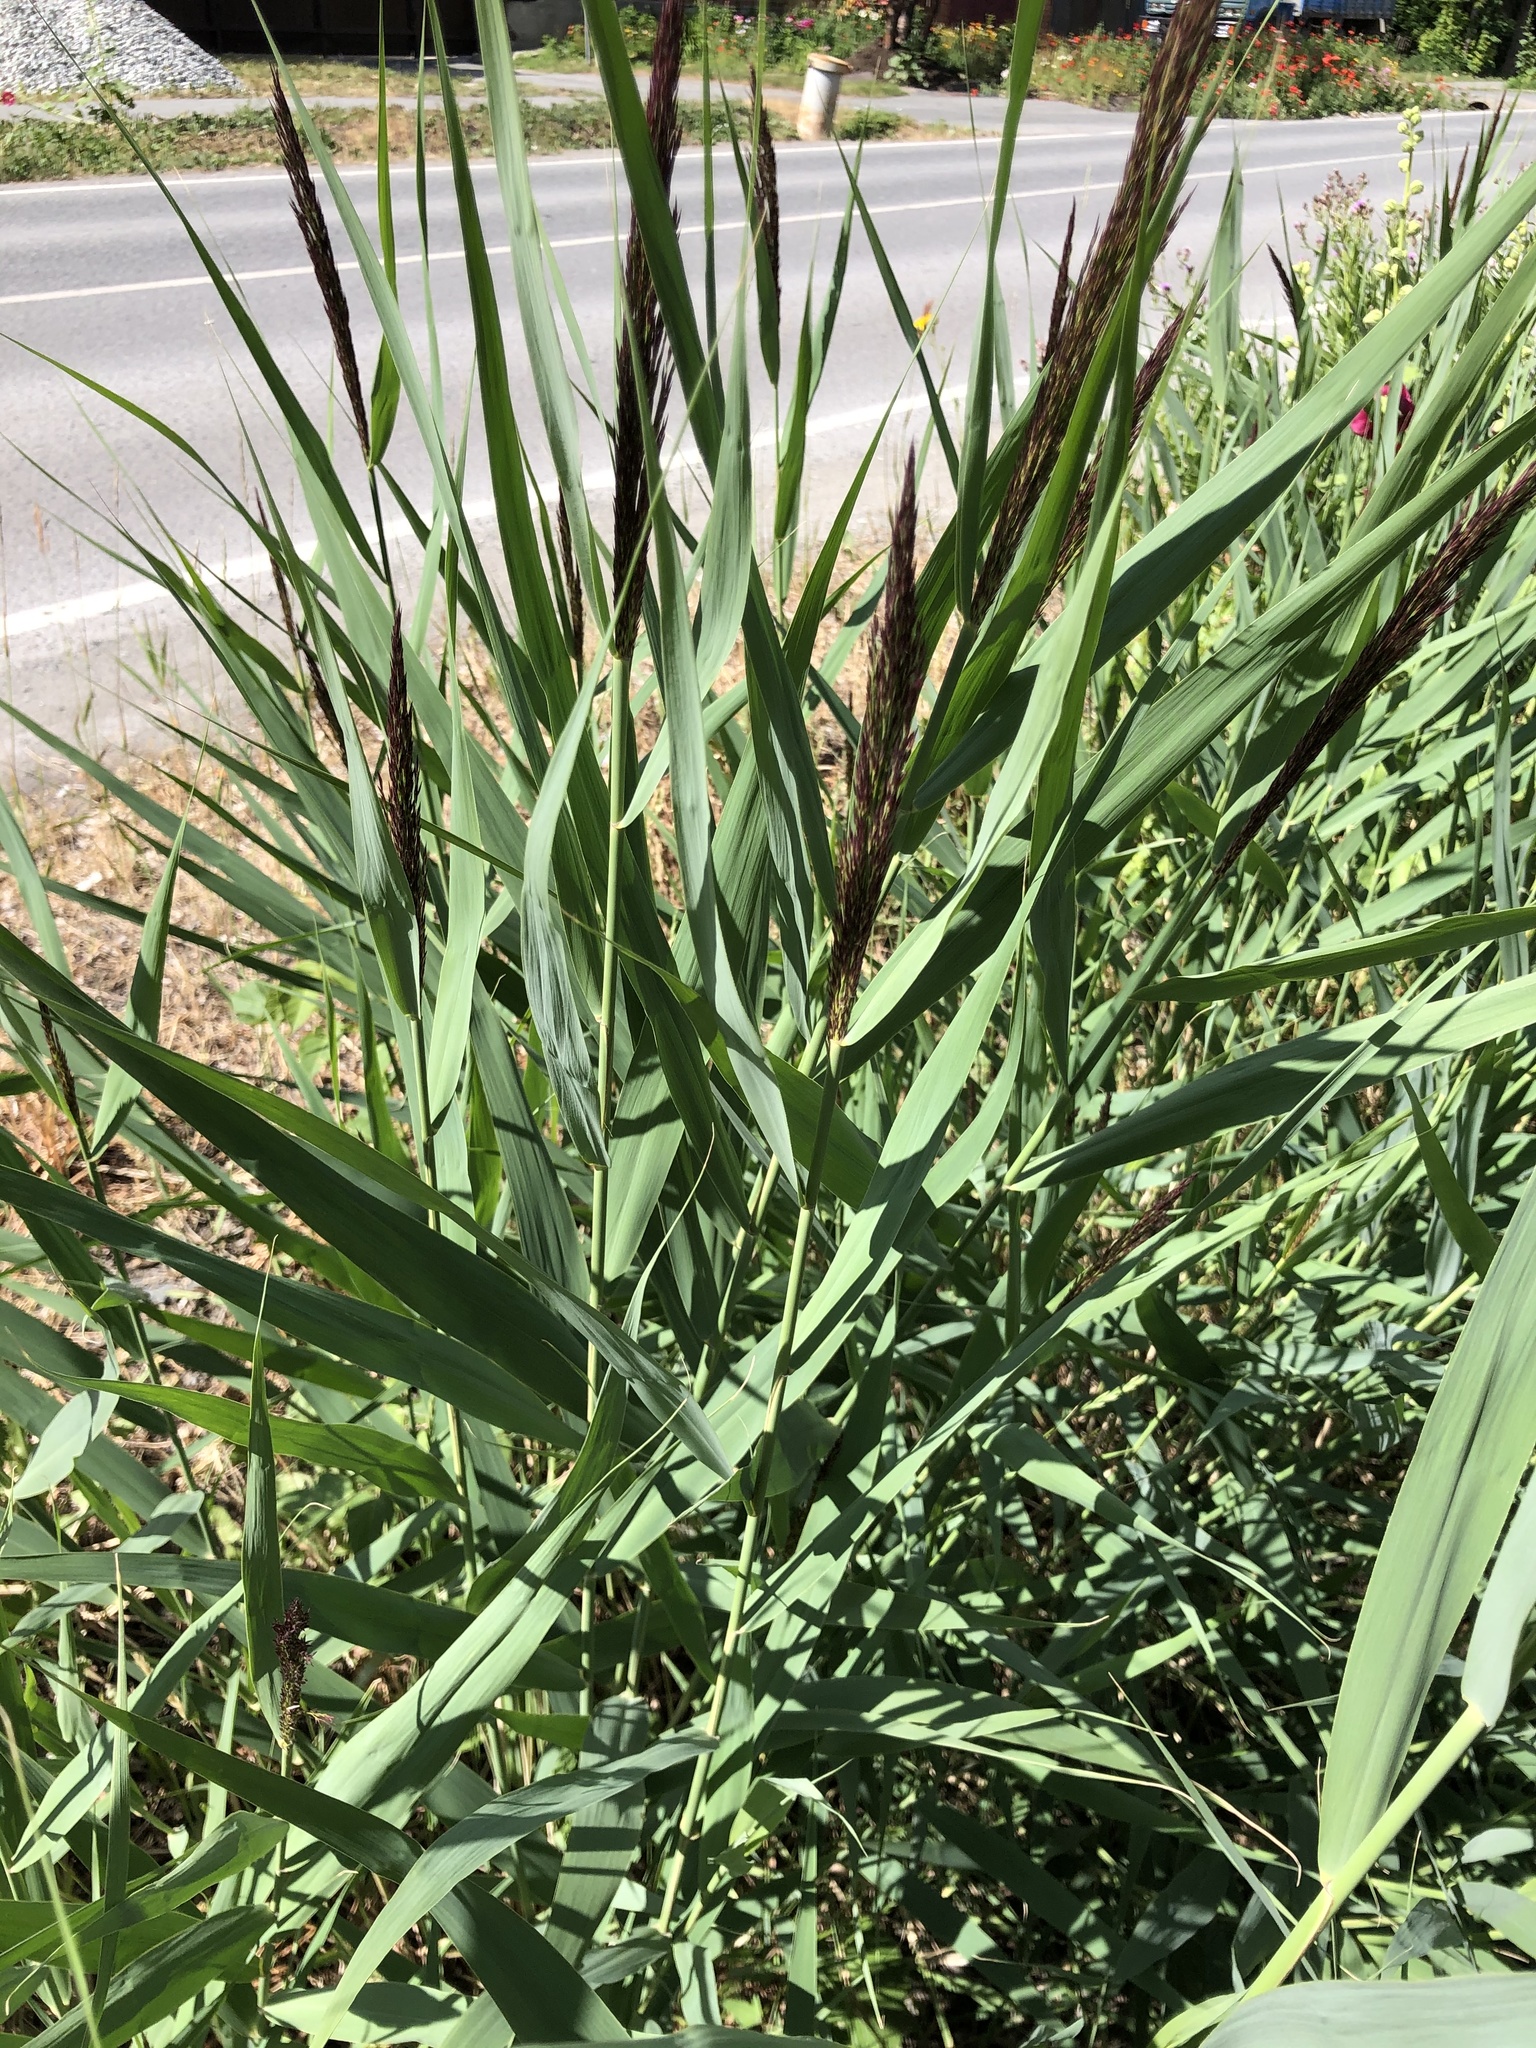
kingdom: Plantae
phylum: Tracheophyta
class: Liliopsida
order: Poales
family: Poaceae
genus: Phragmites
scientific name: Phragmites australis
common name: Common reed
